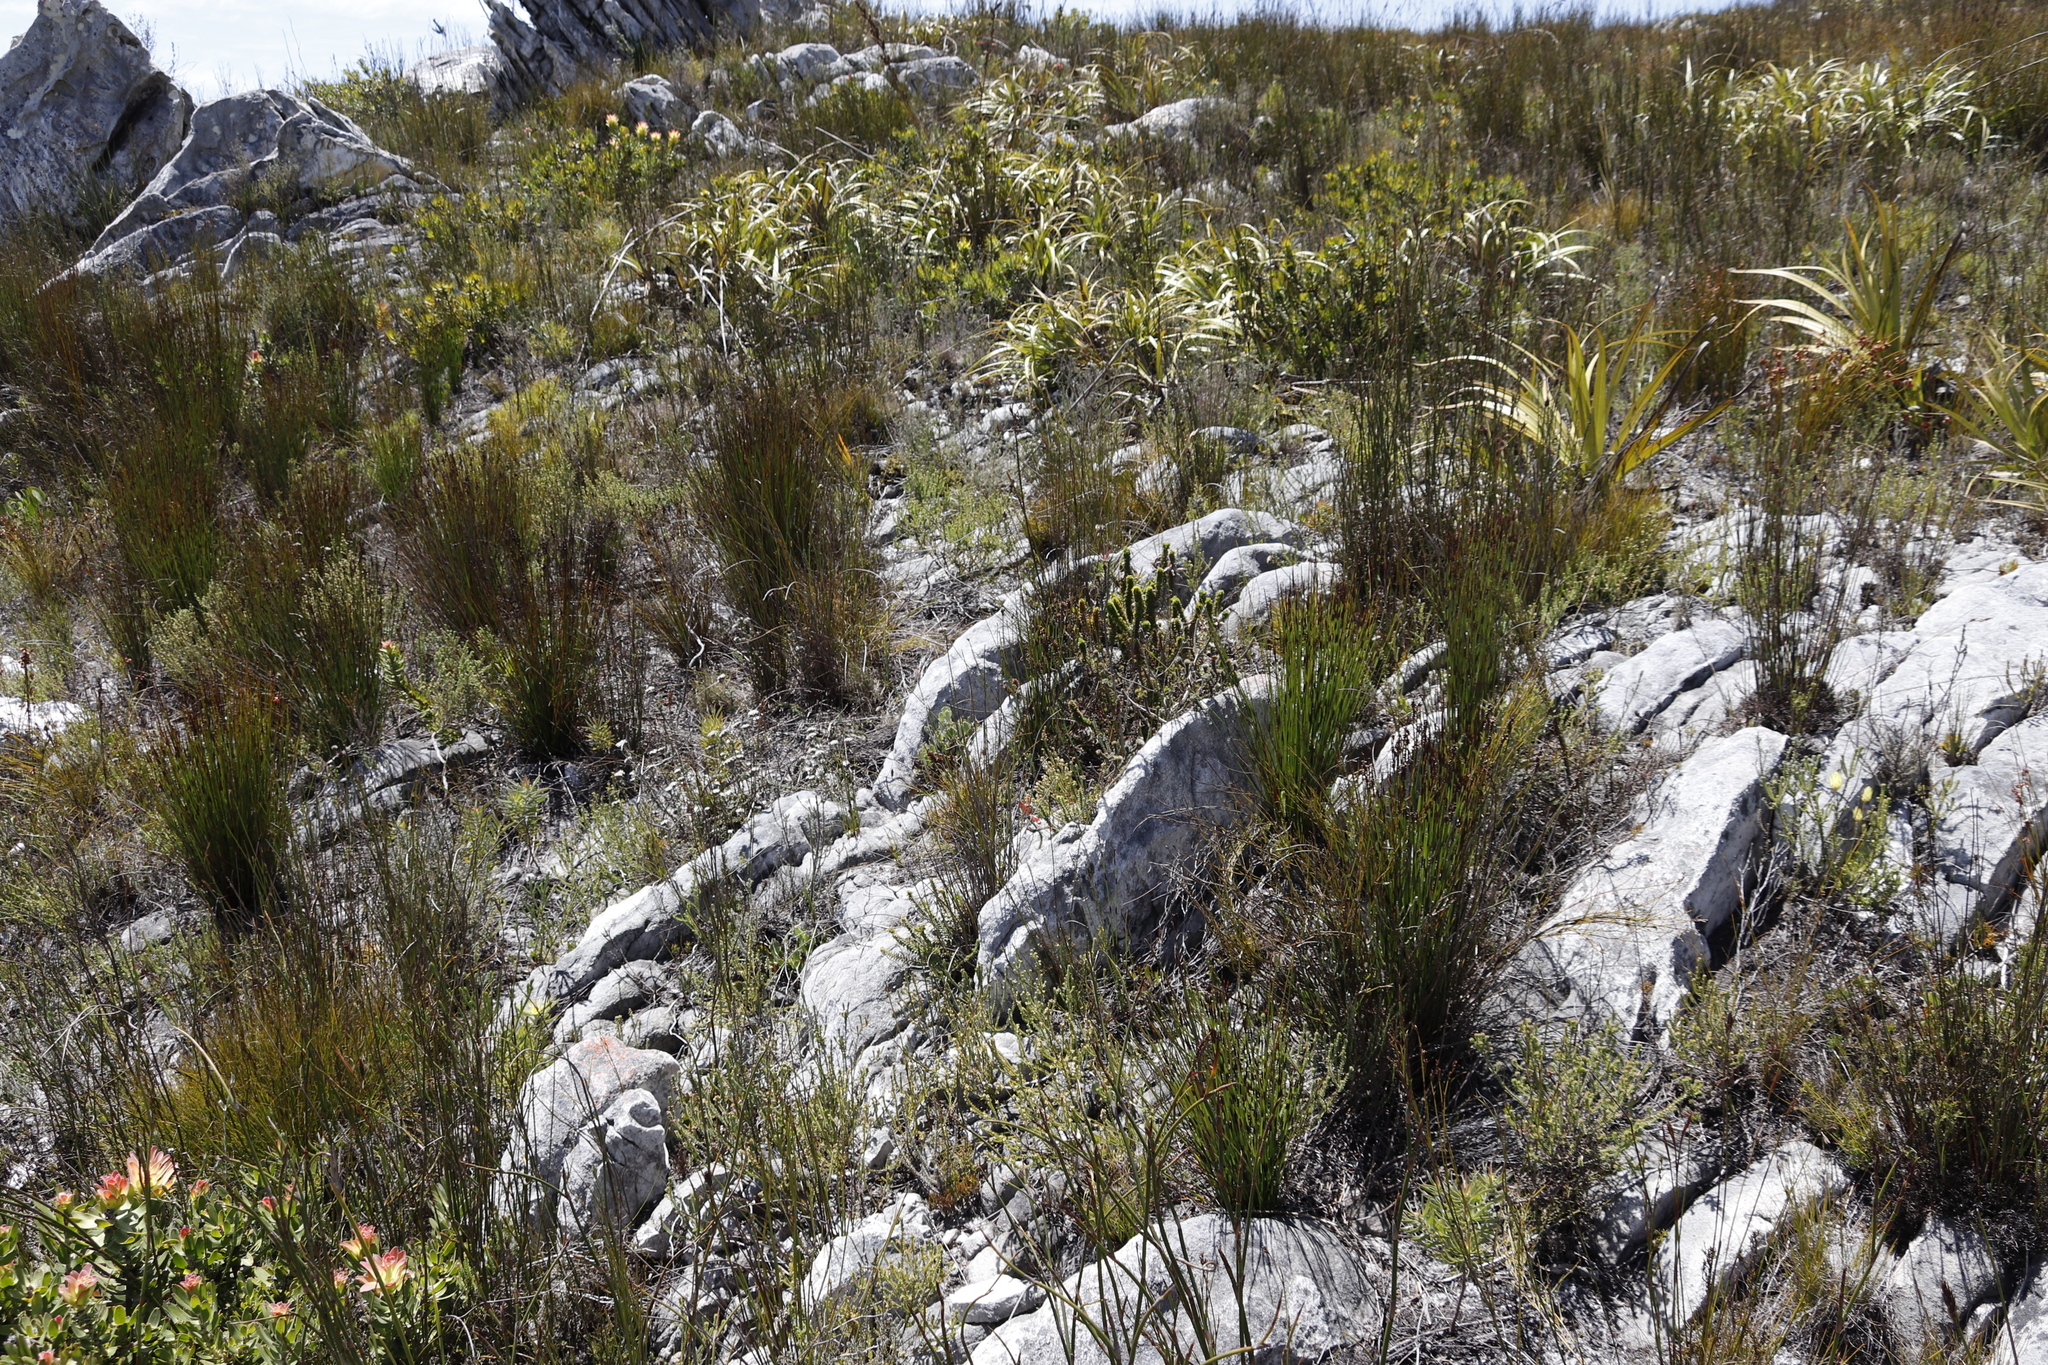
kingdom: Plantae
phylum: Tracheophyta
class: Liliopsida
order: Poales
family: Cyperaceae
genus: Tetraria
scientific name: Tetraria thermalis
